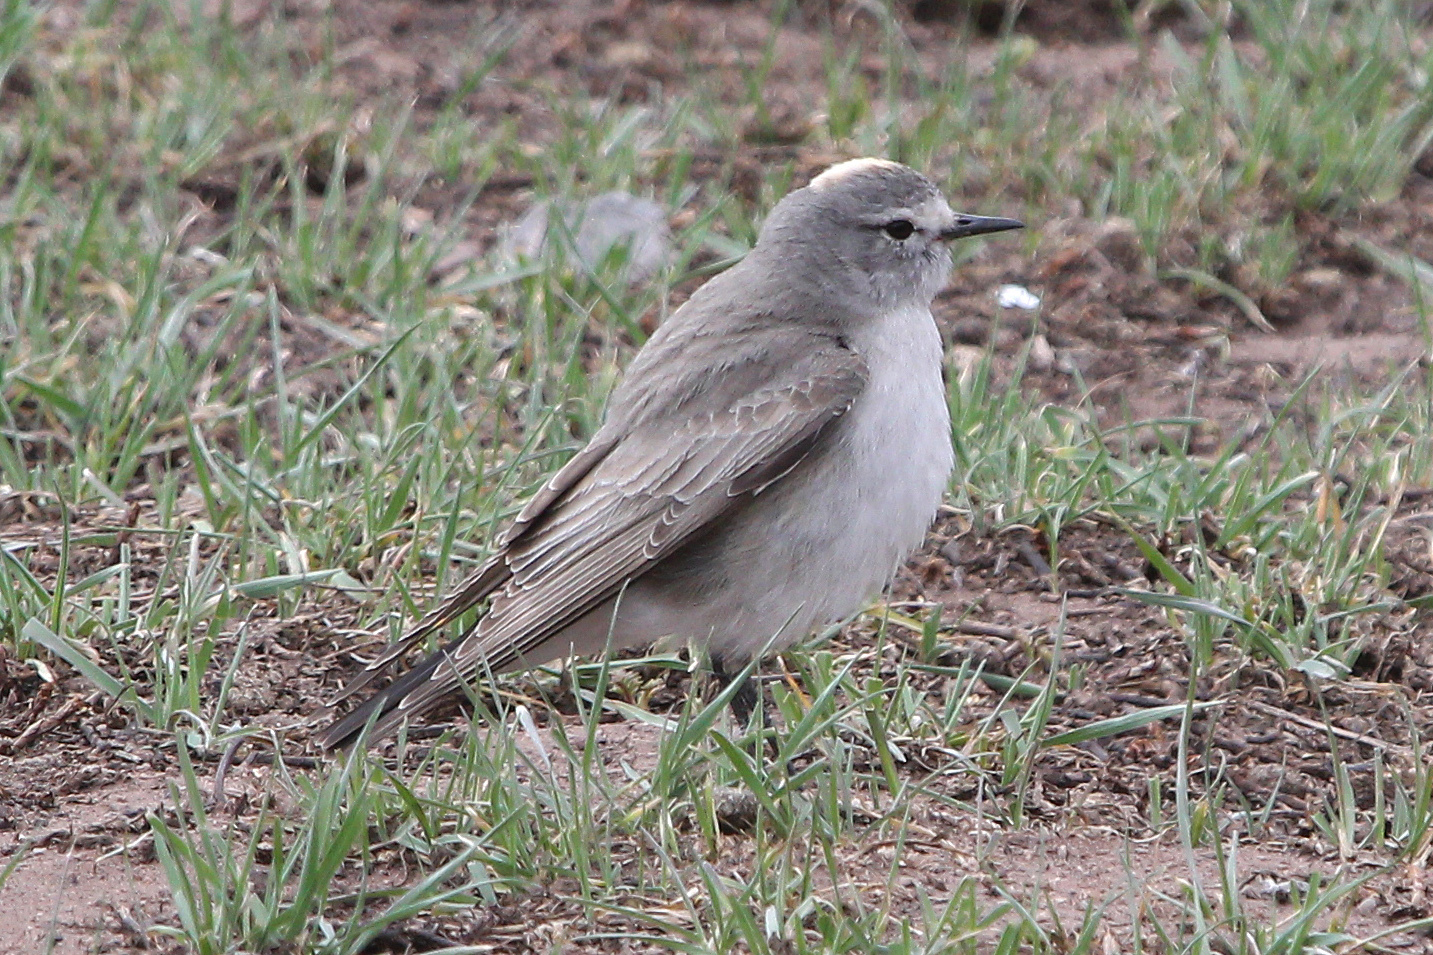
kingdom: Animalia
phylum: Chordata
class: Aves
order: Passeriformes
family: Tyrannidae
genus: Muscisaxicola
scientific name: Muscisaxicola flavinucha
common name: Ochre-naped ground tyrant
